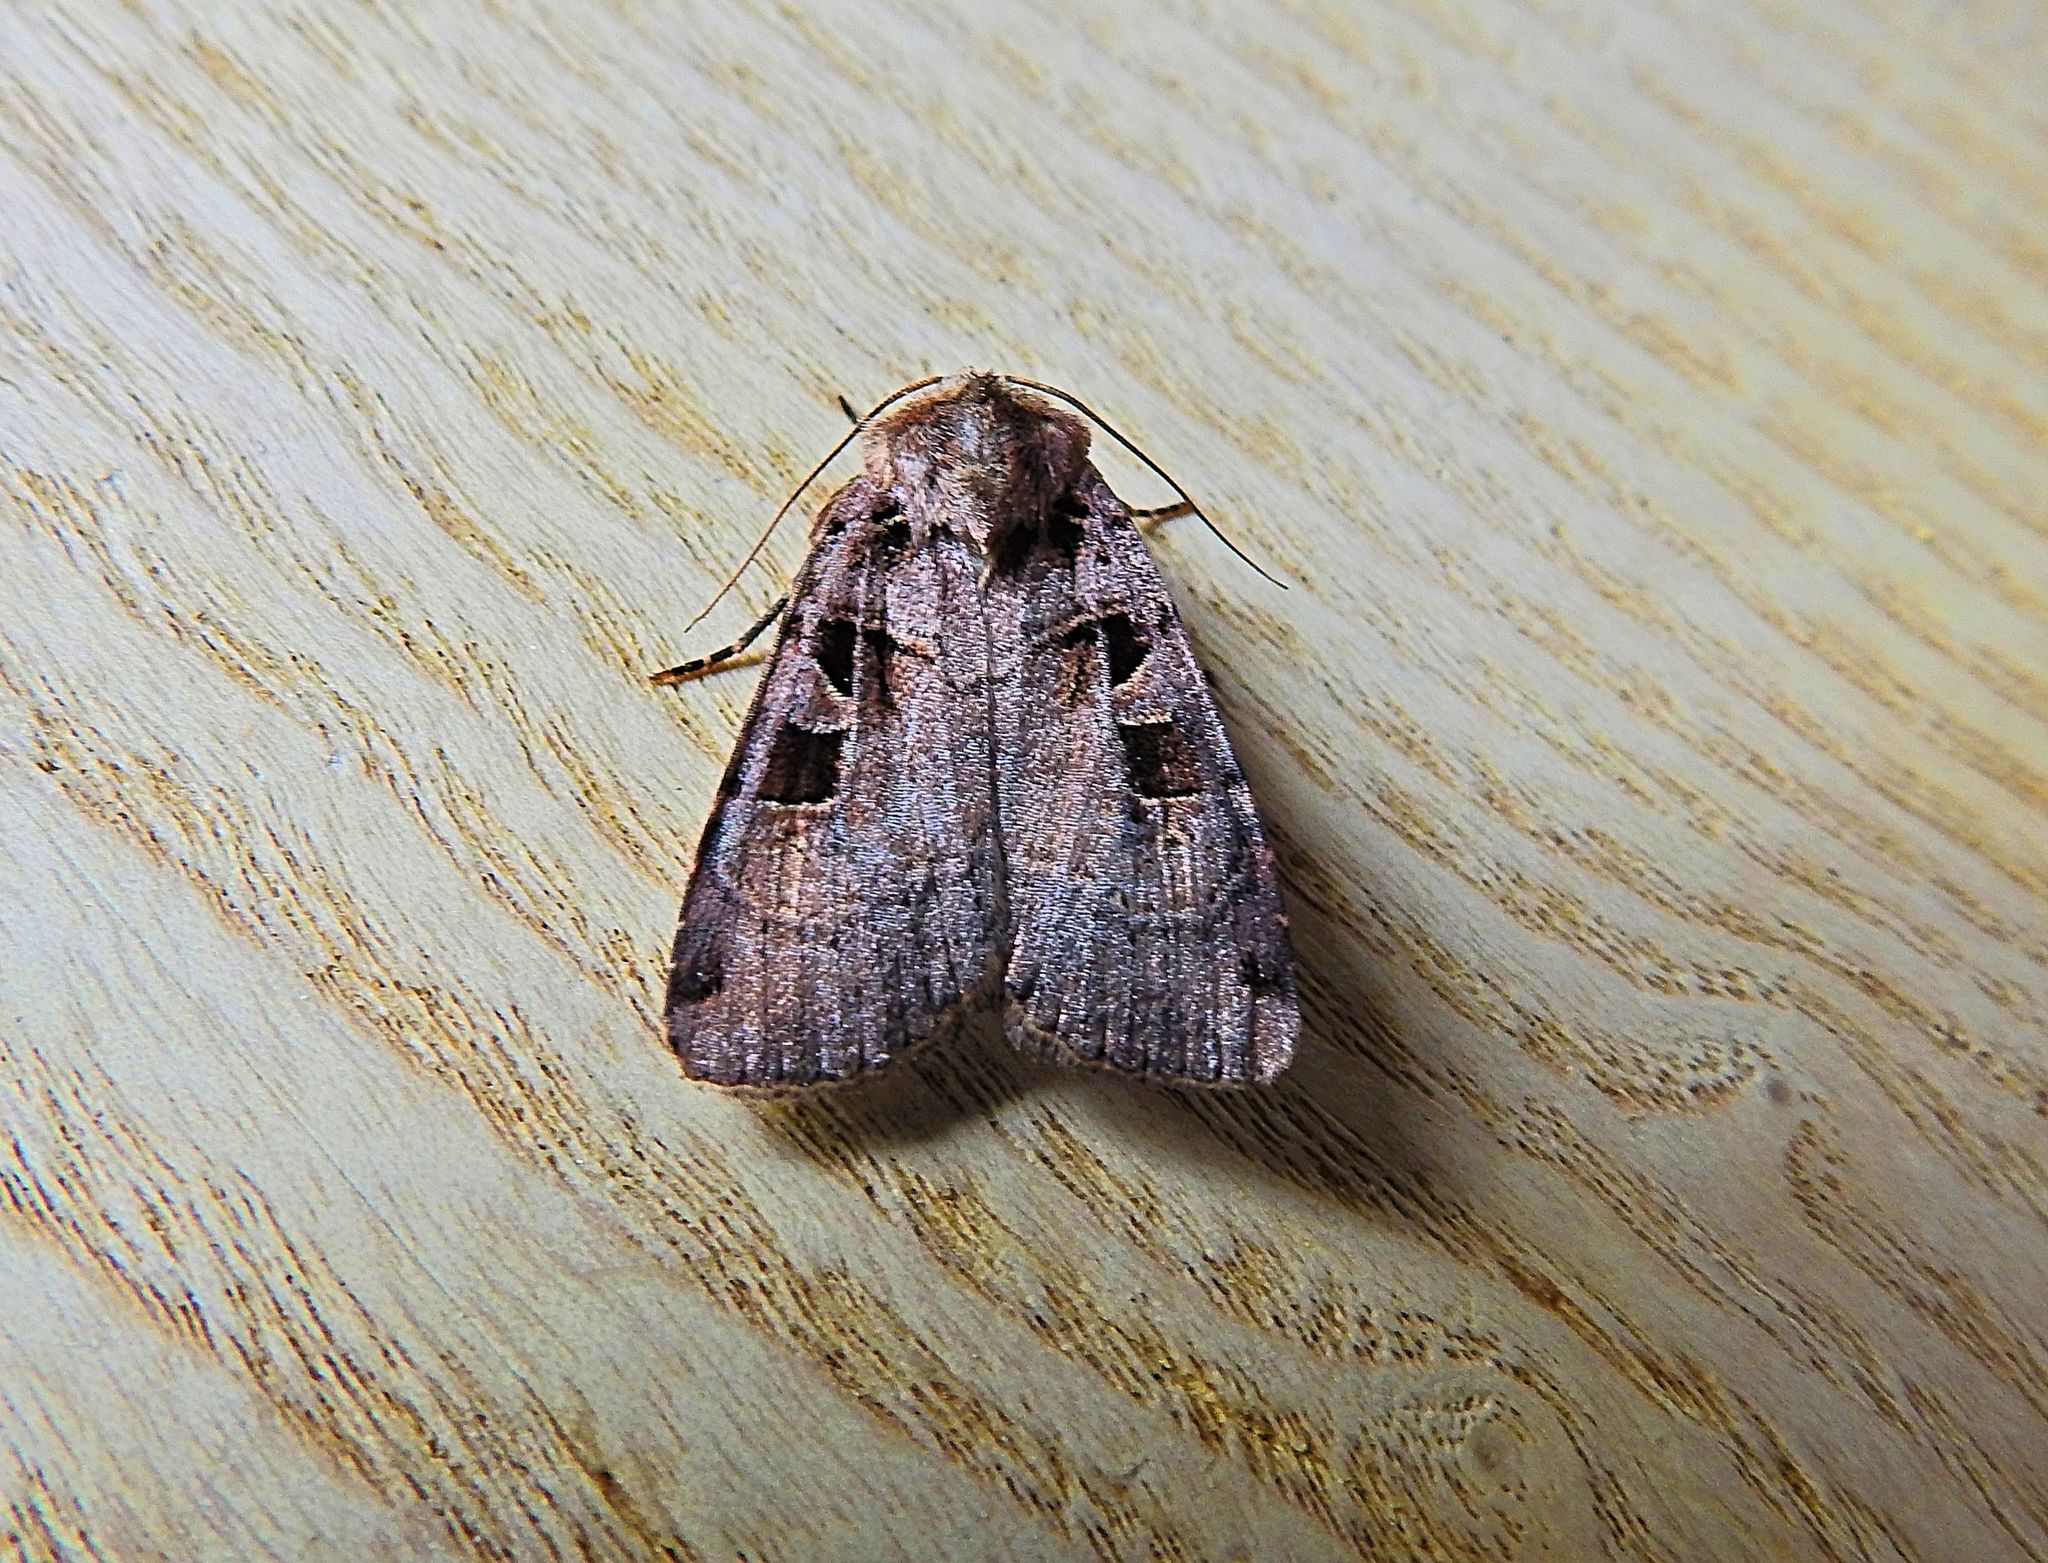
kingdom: Animalia
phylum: Arthropoda
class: Insecta
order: Lepidoptera
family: Noctuidae
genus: Xestia
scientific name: Xestia triangulum
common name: Double square-spot
